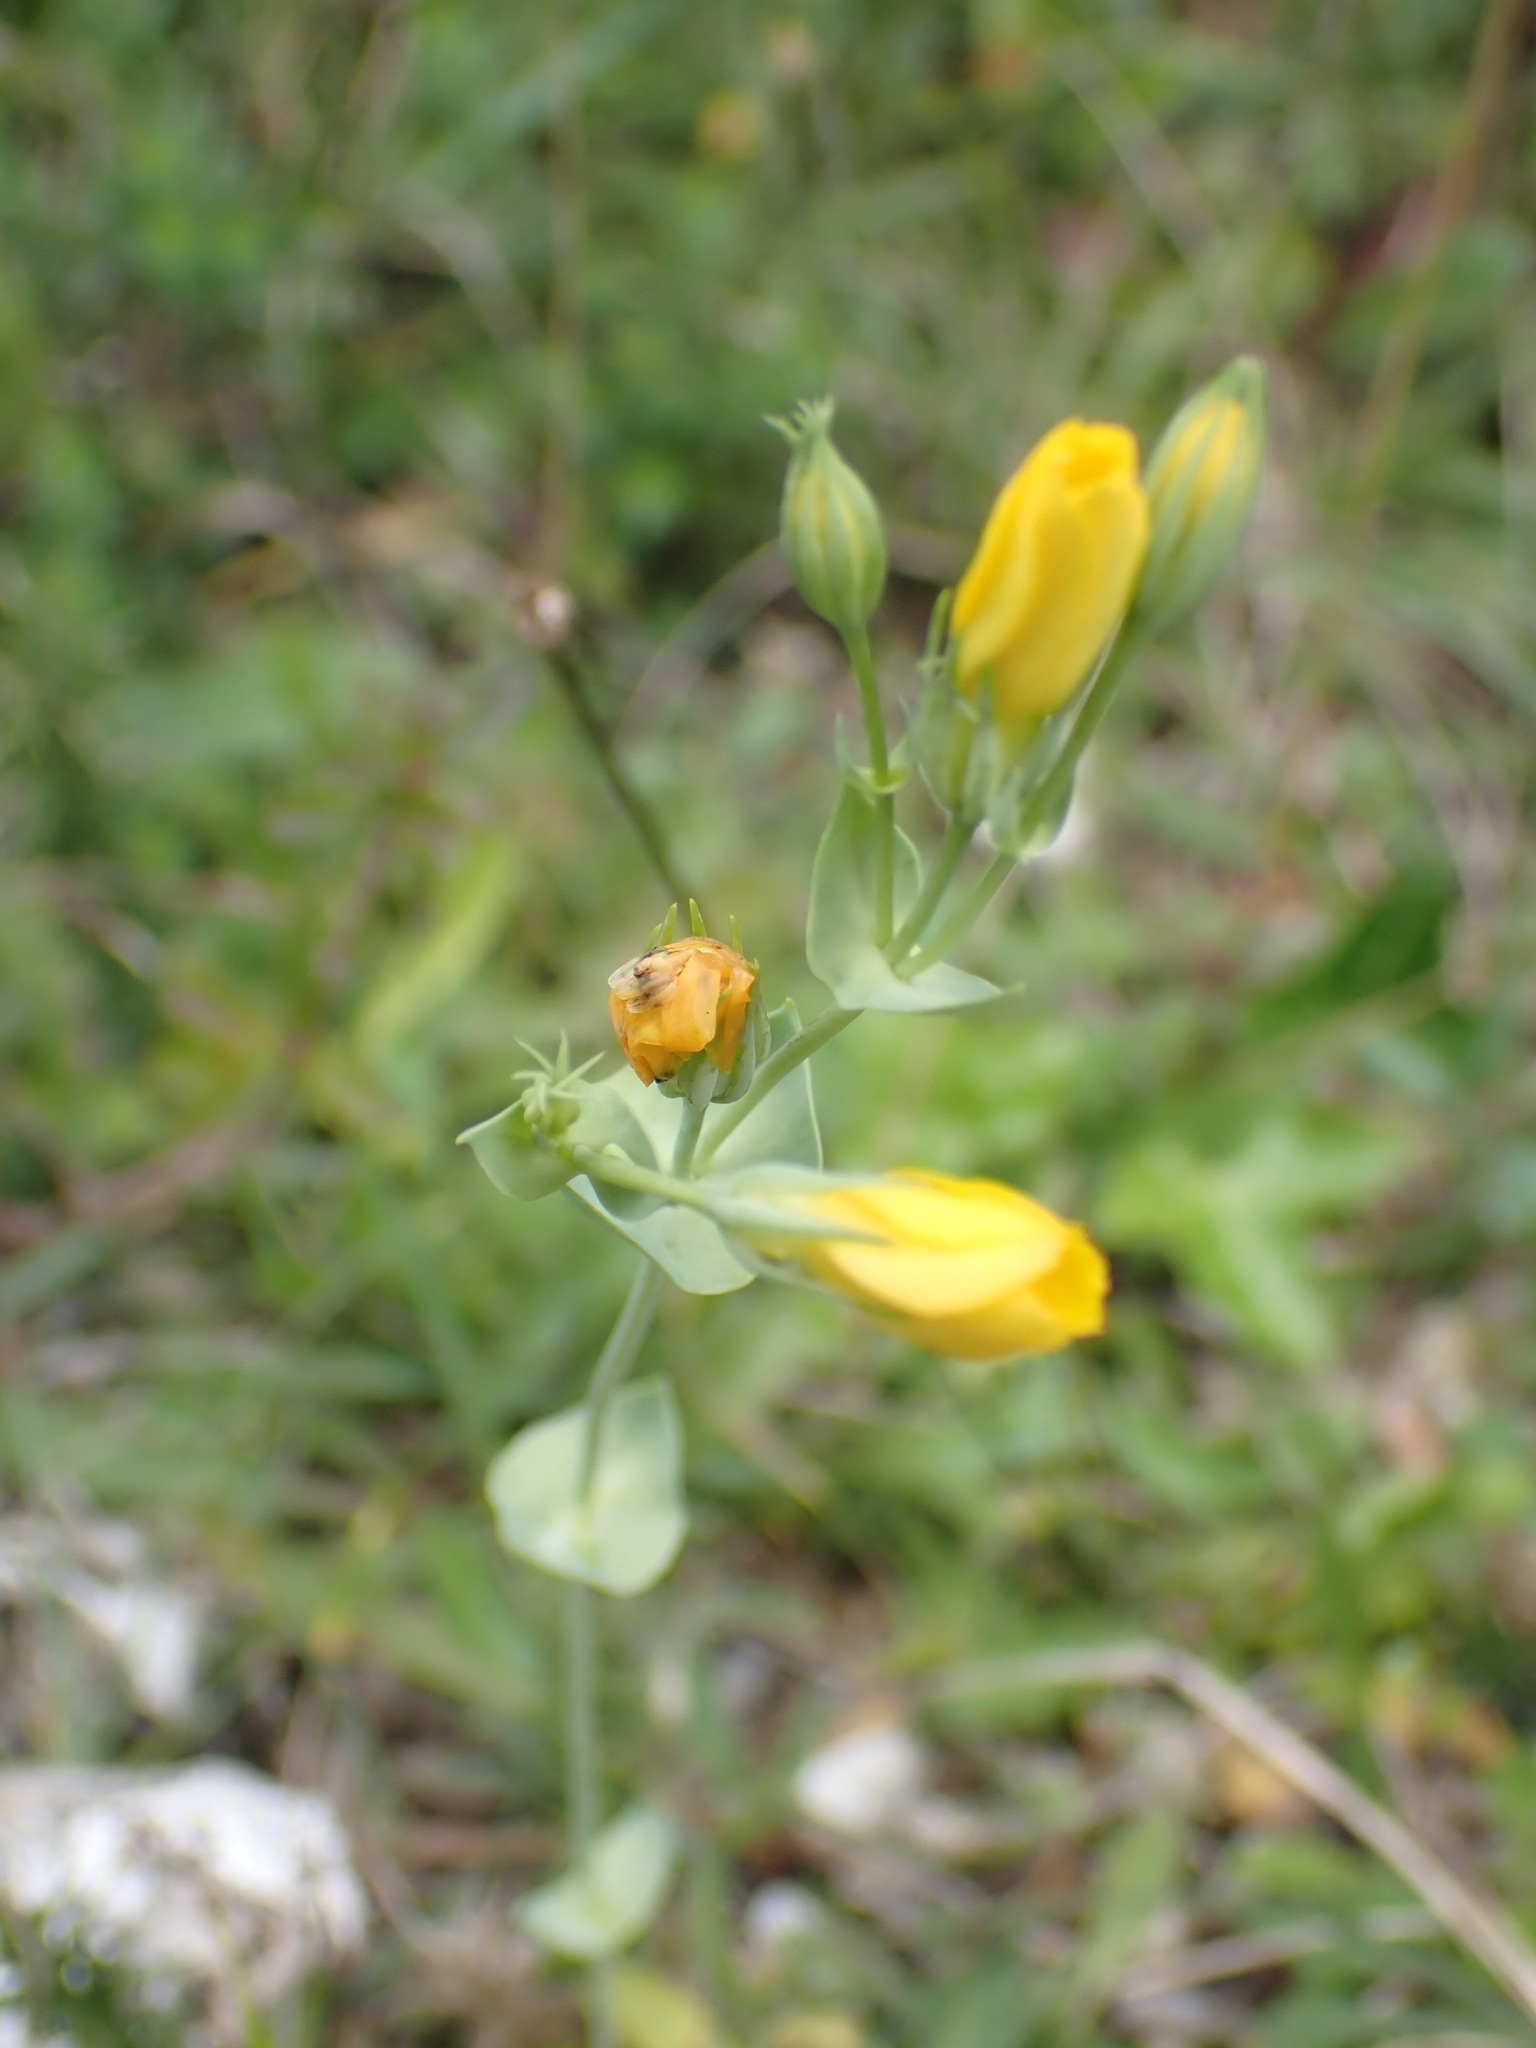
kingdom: Plantae
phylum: Tracheophyta
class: Magnoliopsida
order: Gentianales
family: Gentianaceae
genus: Blackstonia
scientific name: Blackstonia perfoliata
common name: Yellow-wort
